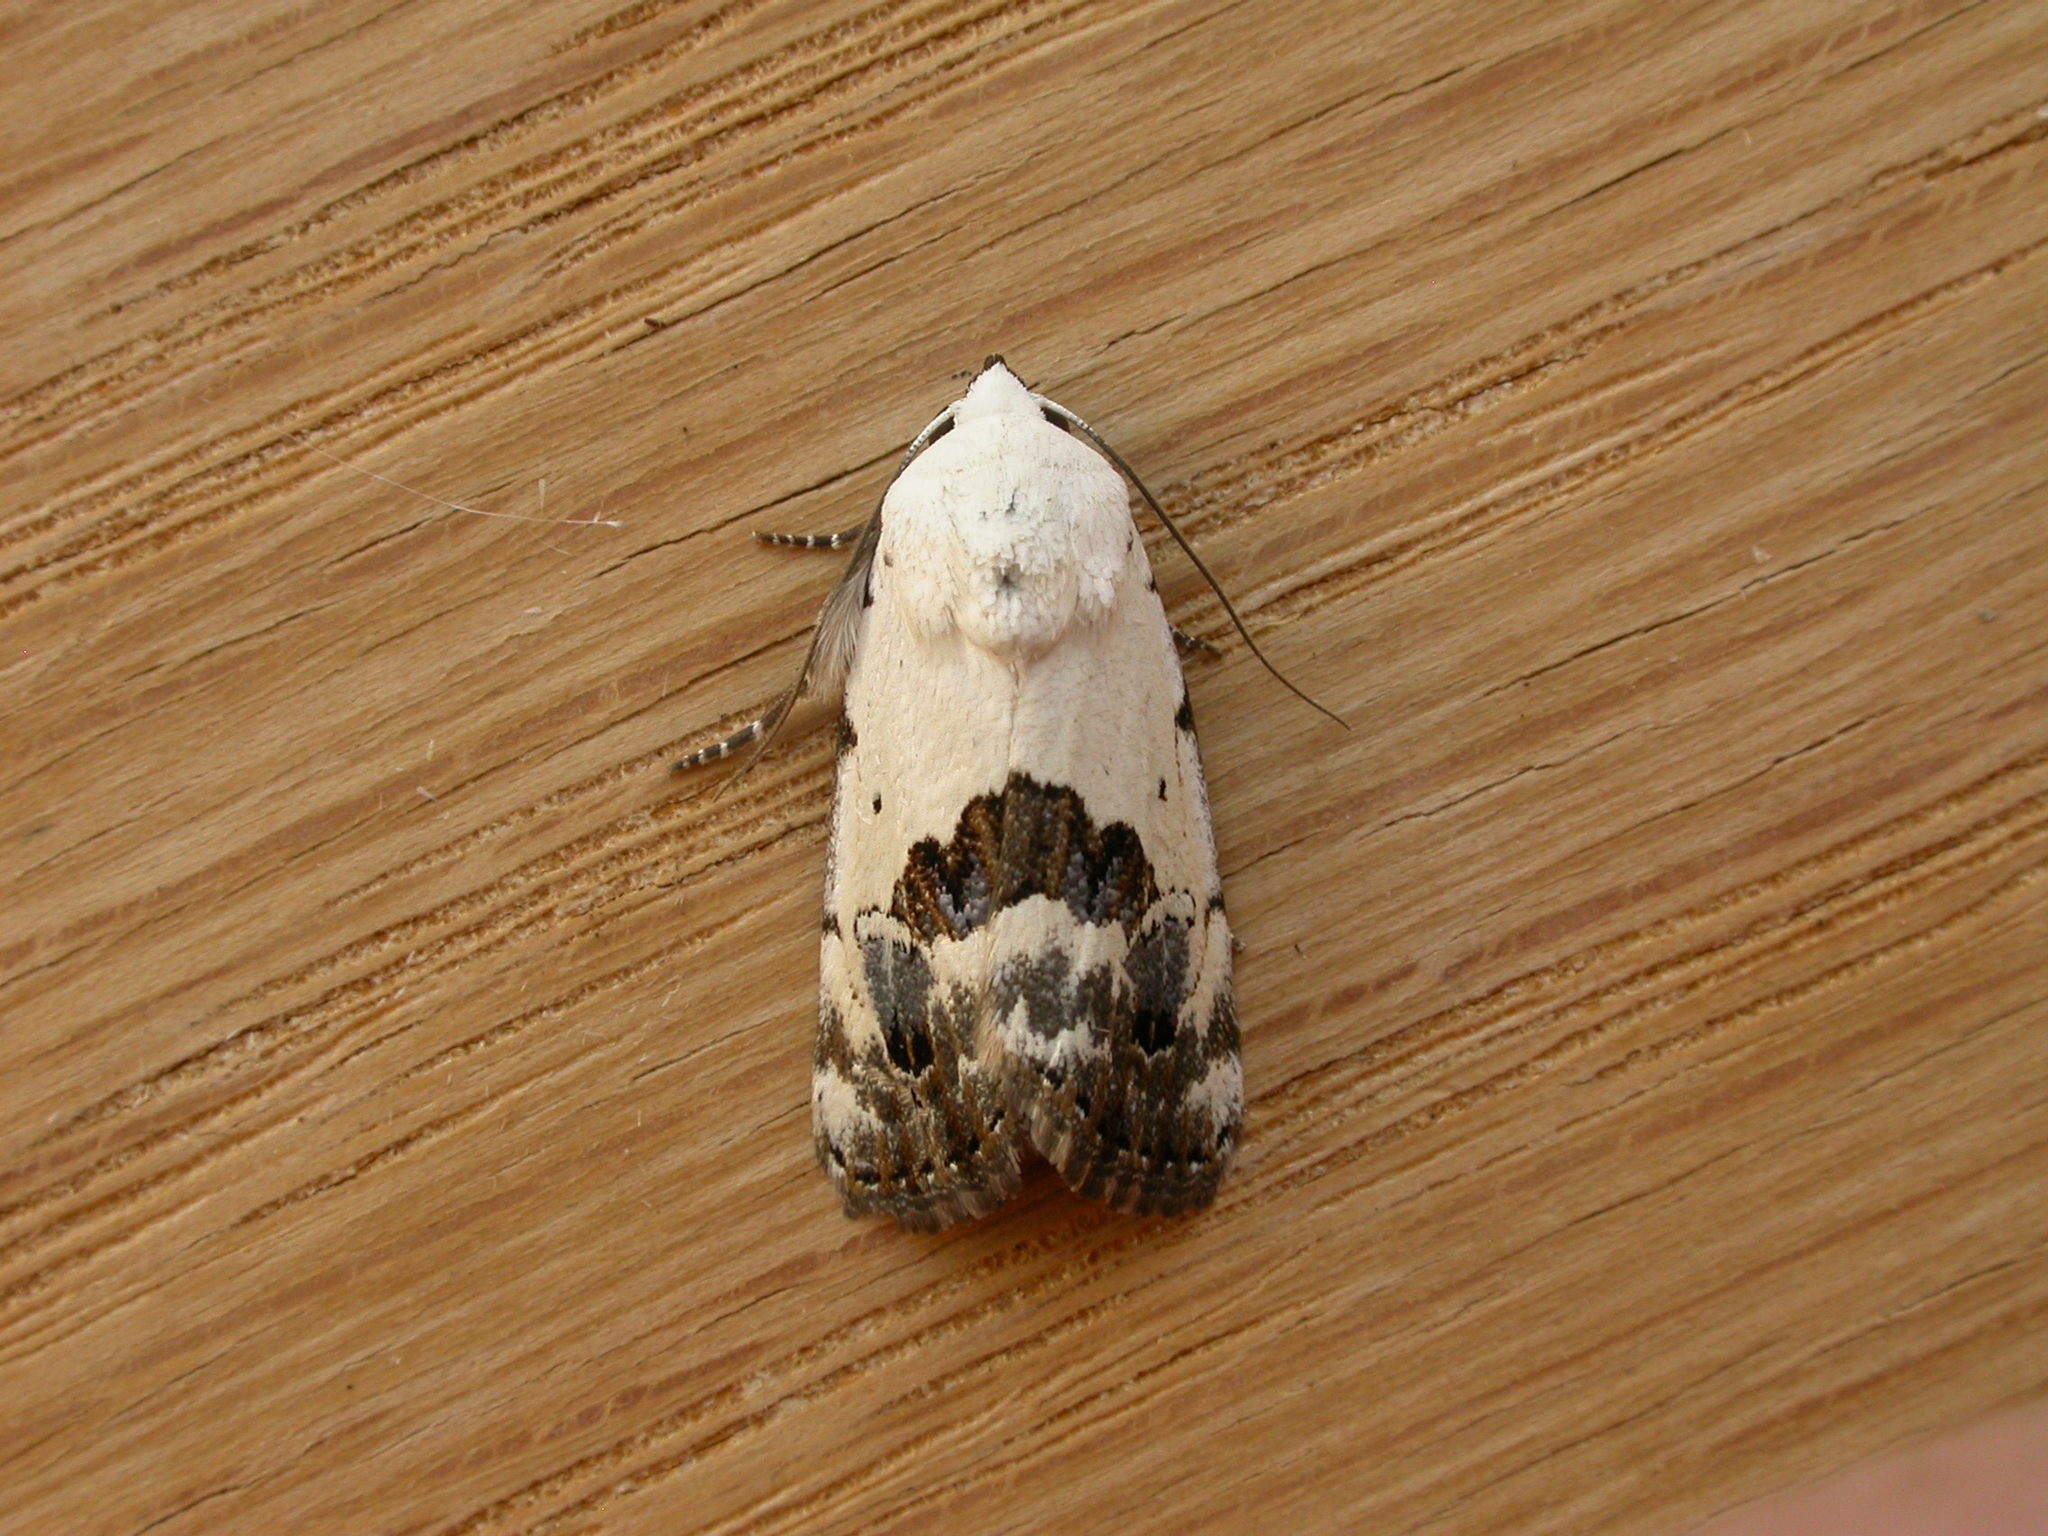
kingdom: Animalia
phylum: Arthropoda
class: Insecta
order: Lepidoptera
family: Nolidae
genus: Armactica
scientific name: Armactica conchidia
